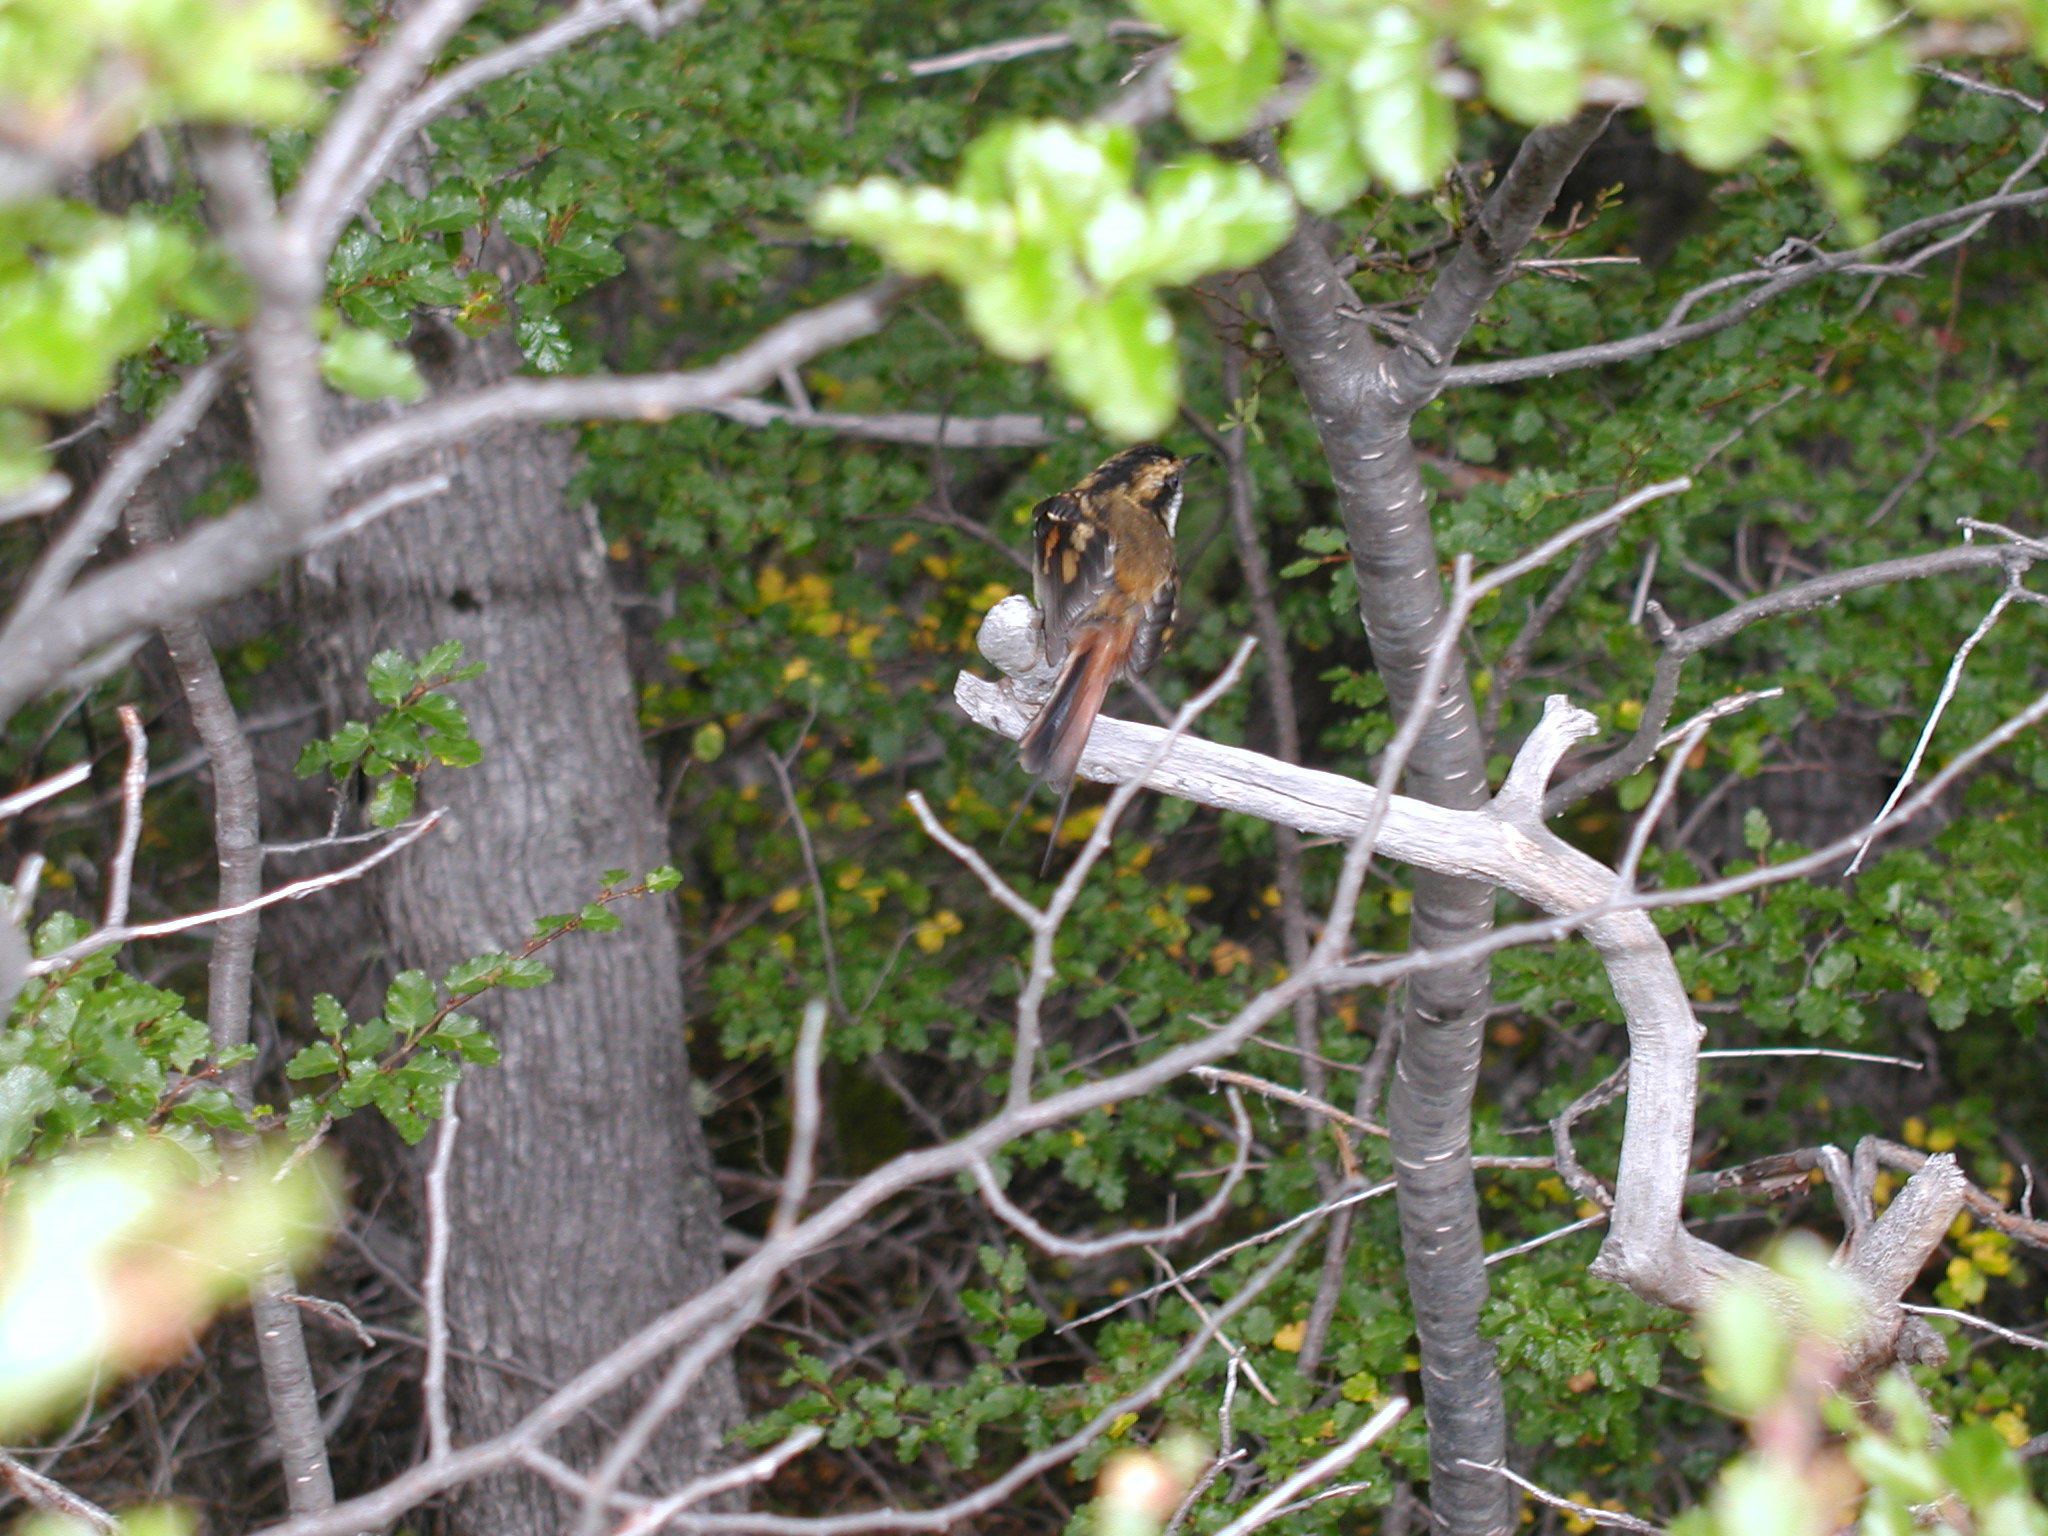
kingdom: Animalia
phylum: Chordata
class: Aves
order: Passeriformes
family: Furnariidae
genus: Aphrastura
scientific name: Aphrastura spinicauda
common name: Thorn-tailed rayadito
